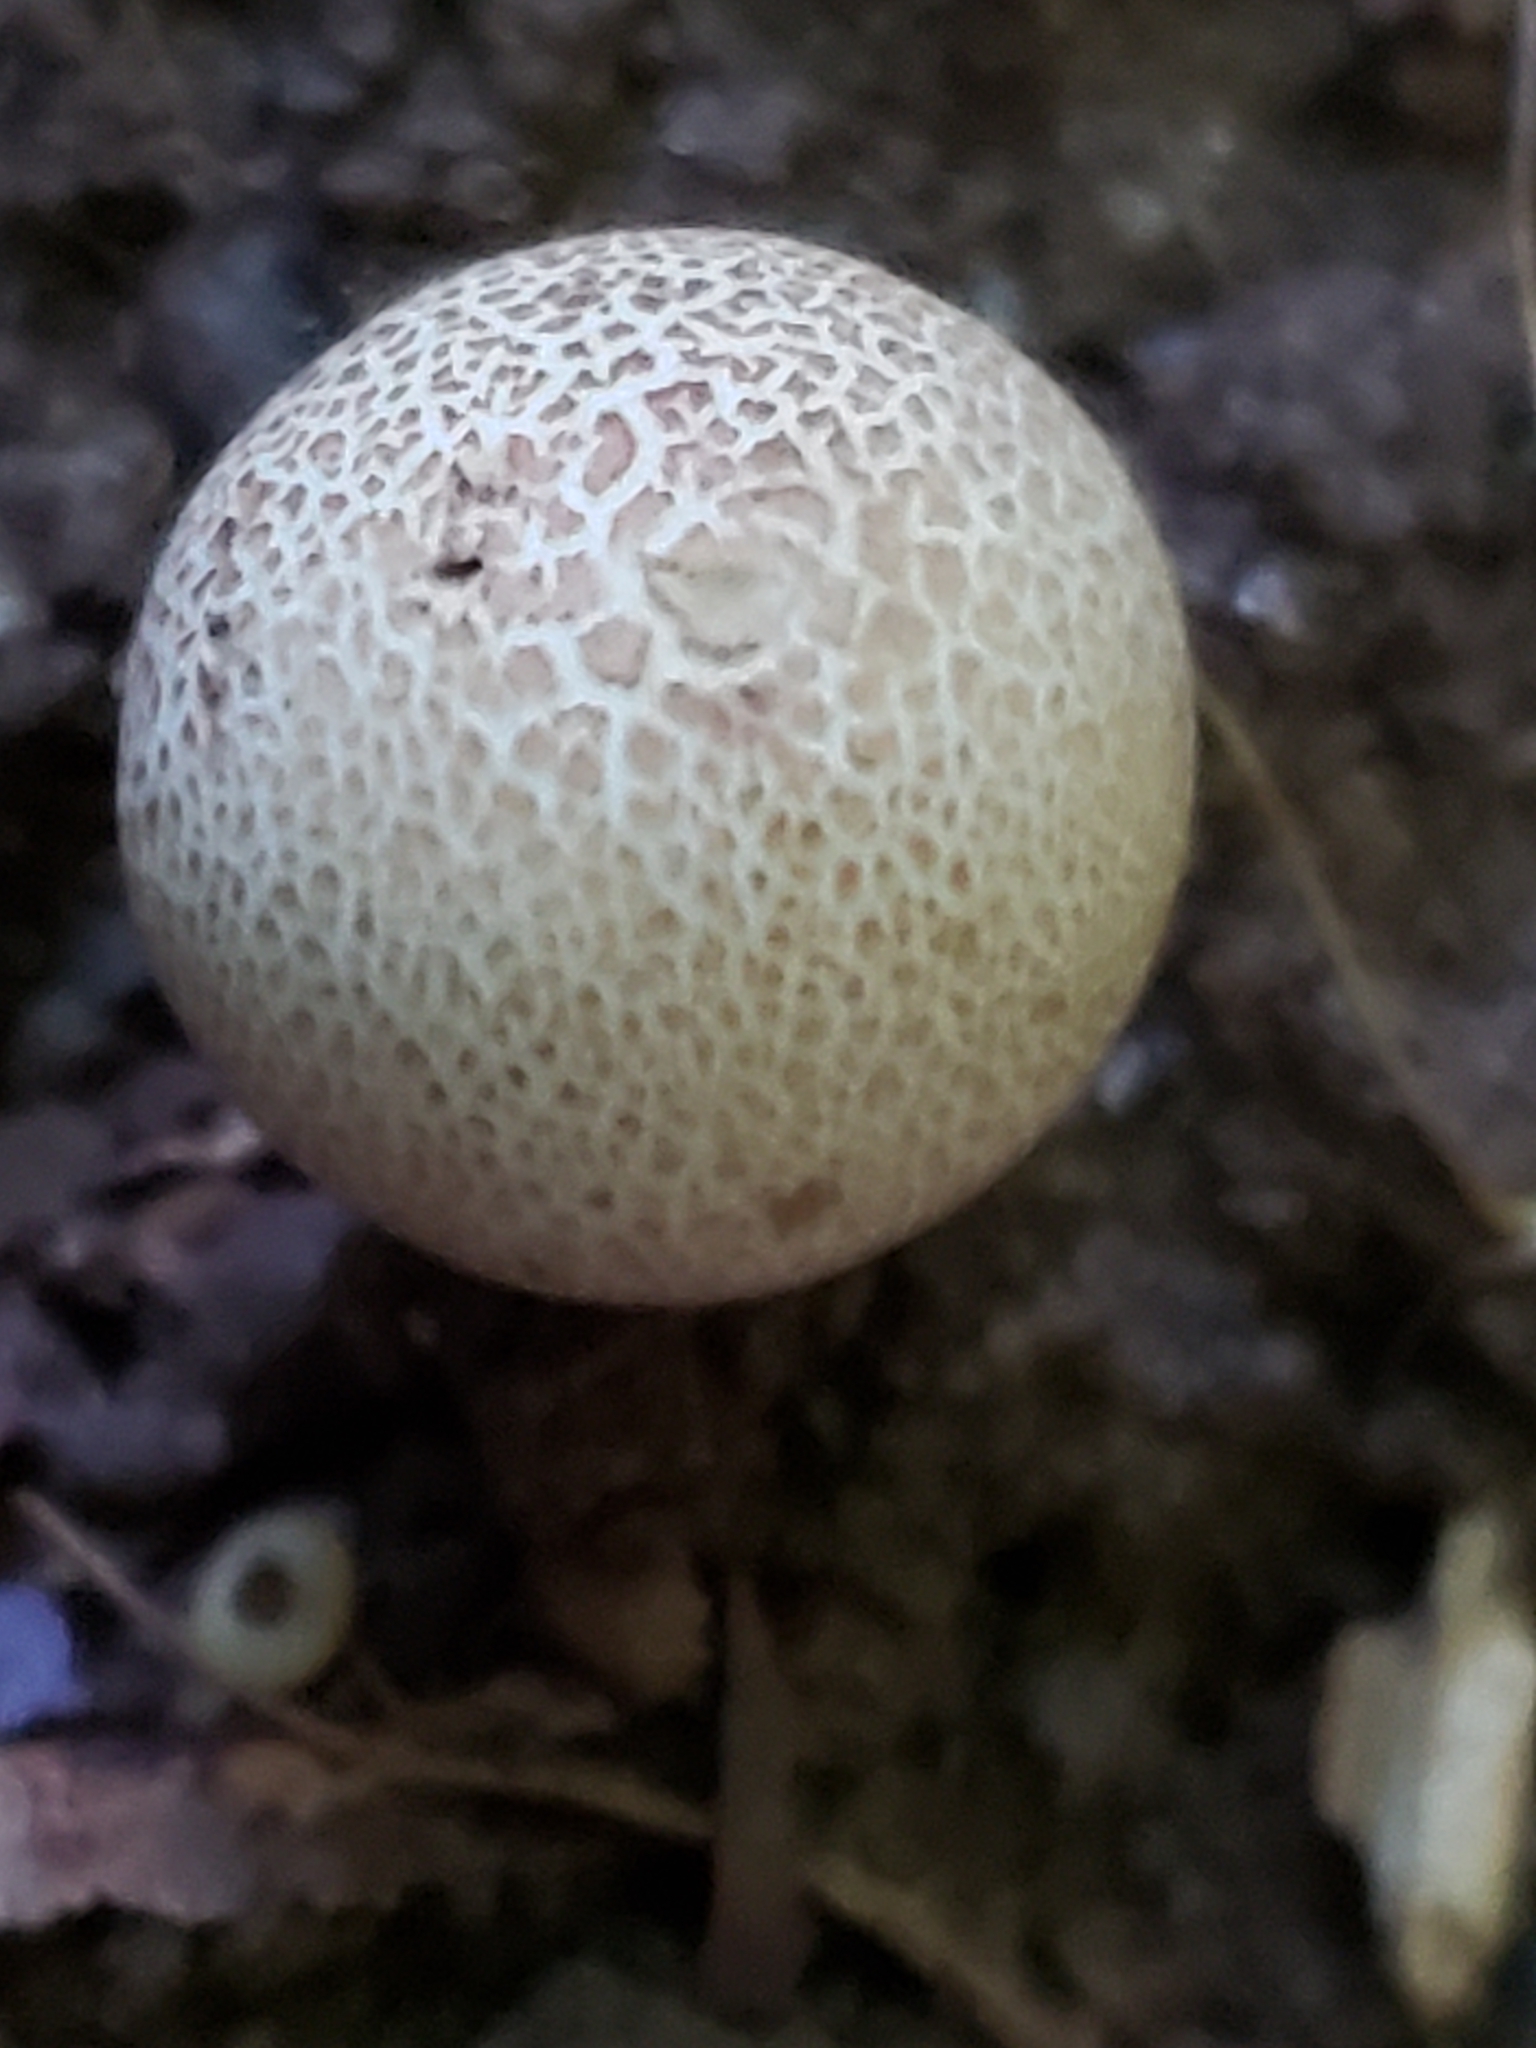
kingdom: Fungi
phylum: Basidiomycota
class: Agaricomycetes
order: Boletales
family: Sclerodermataceae
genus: Scleroderma
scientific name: Scleroderma citrinum
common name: Common earthball
